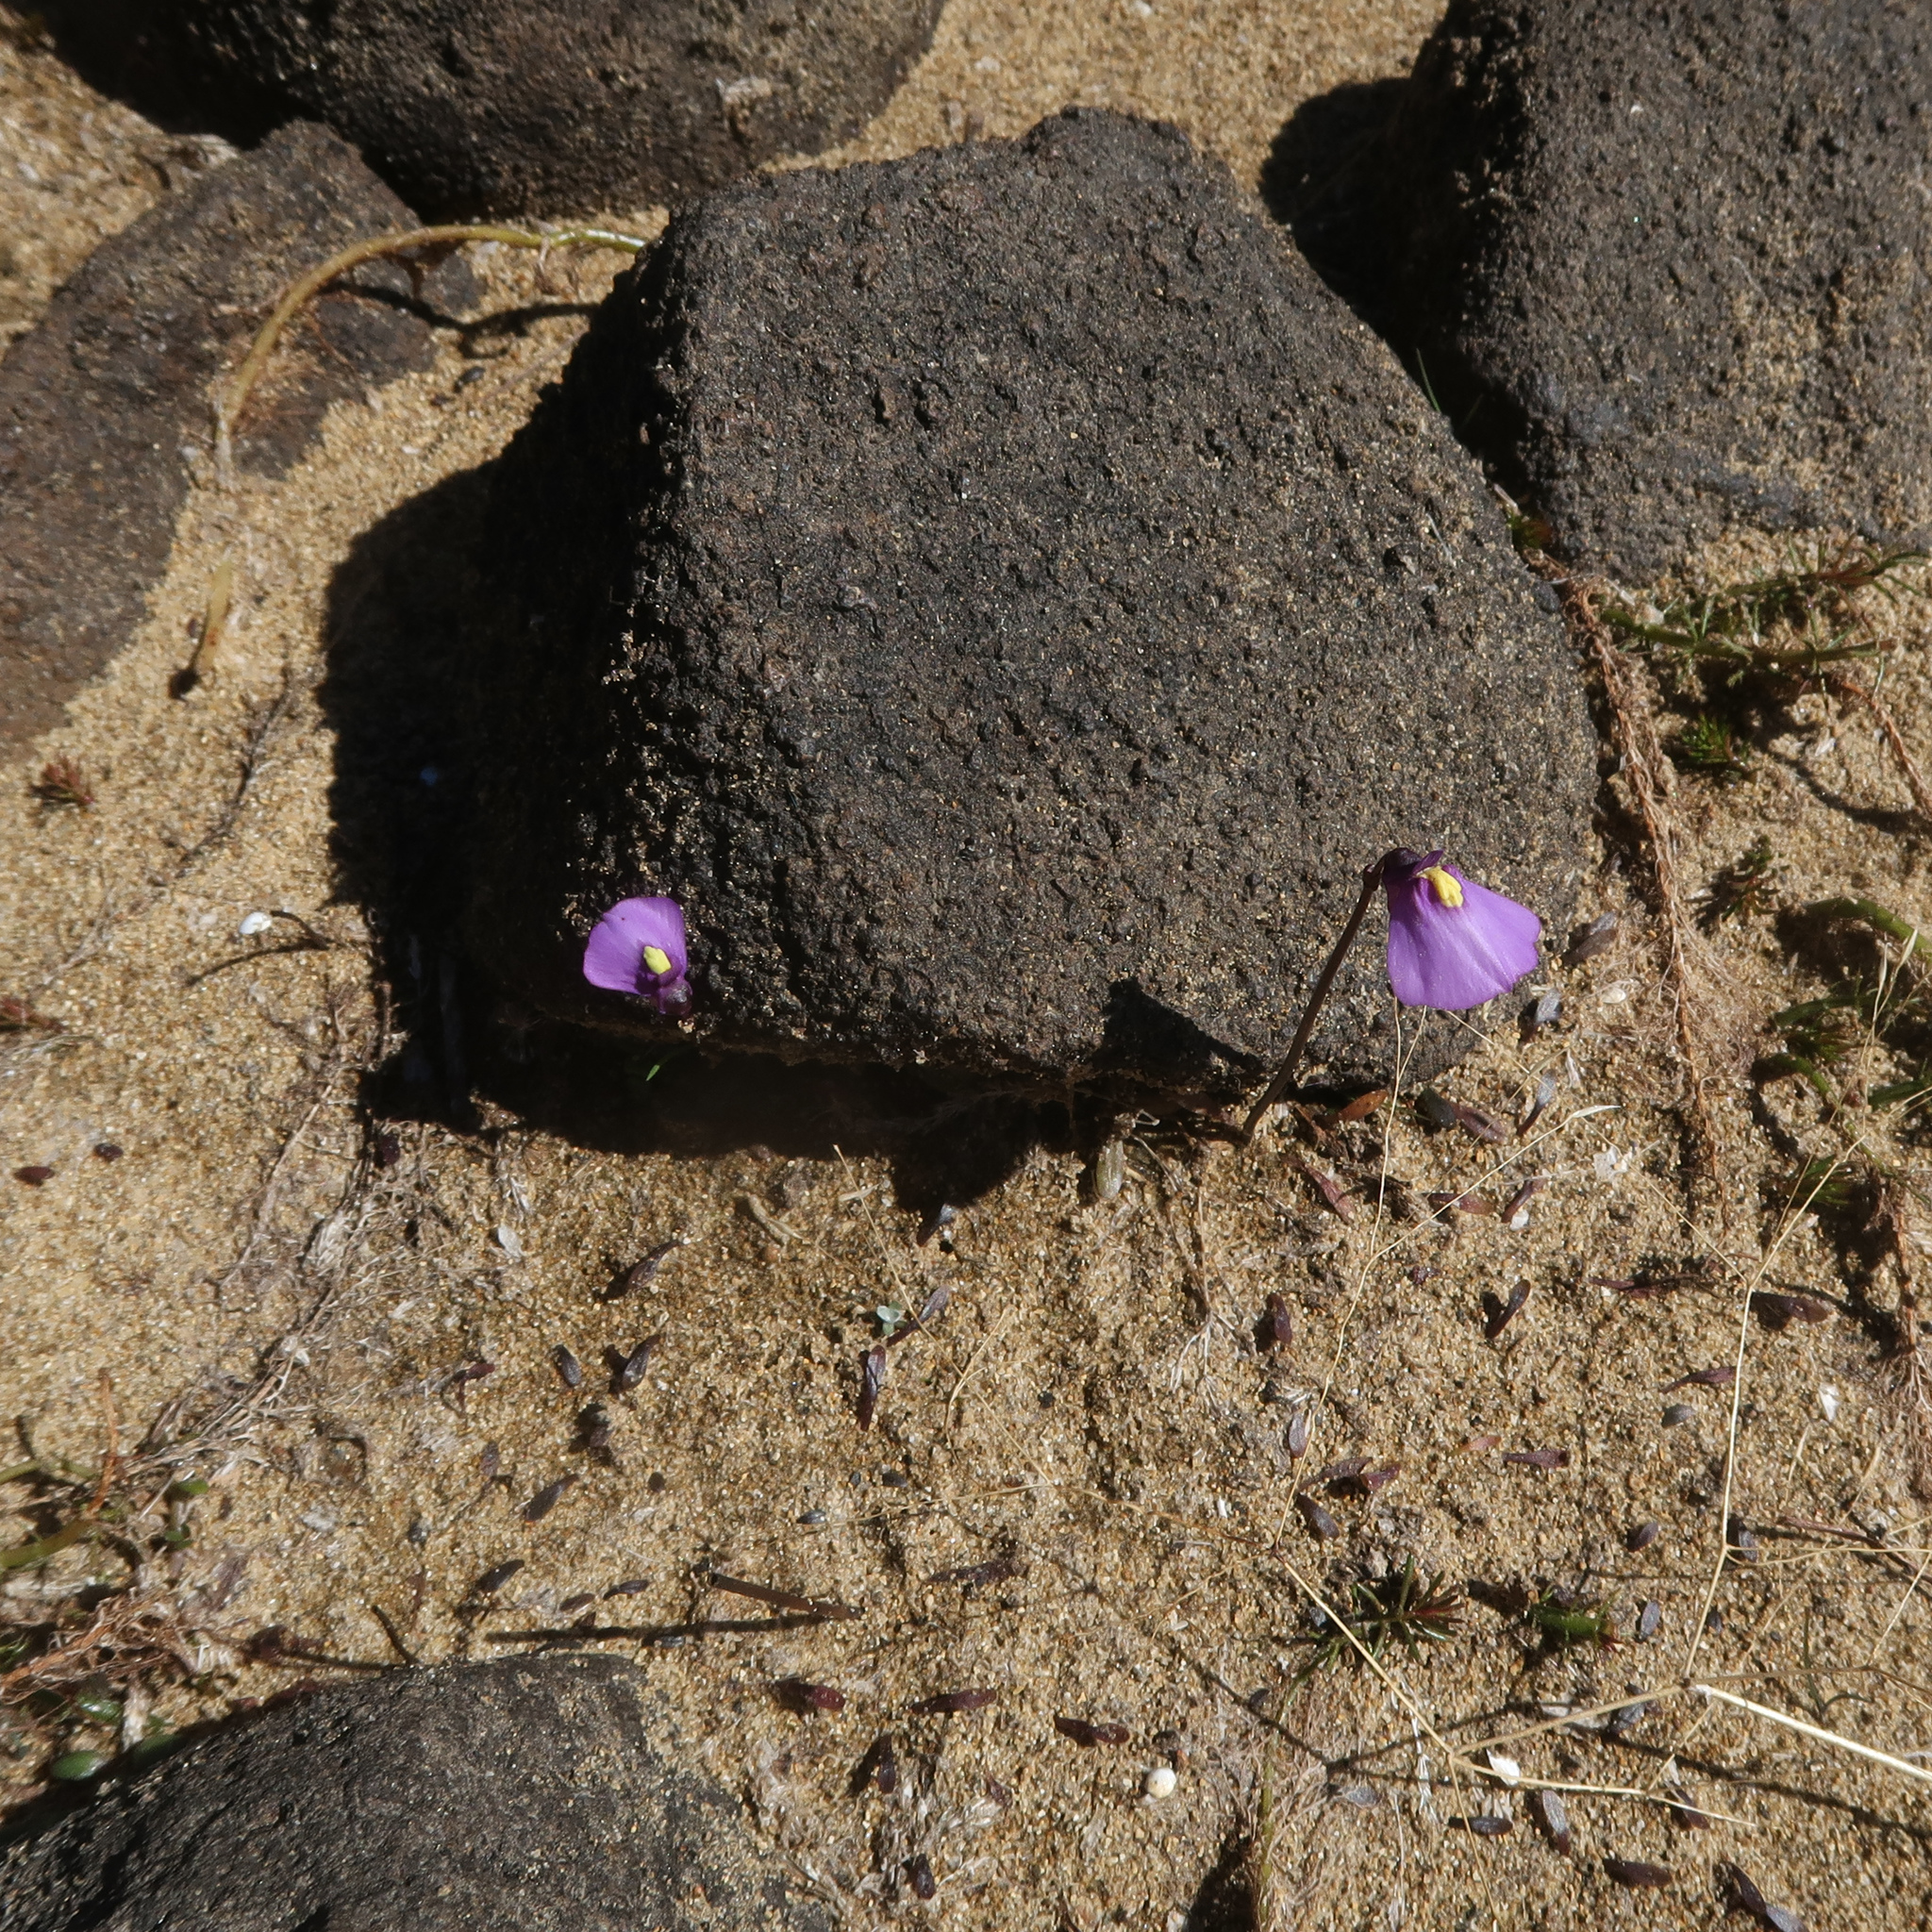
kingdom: Plantae
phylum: Tracheophyta
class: Magnoliopsida
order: Lamiales
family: Lentibulariaceae
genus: Utricularia
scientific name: Utricularia dichotoma
